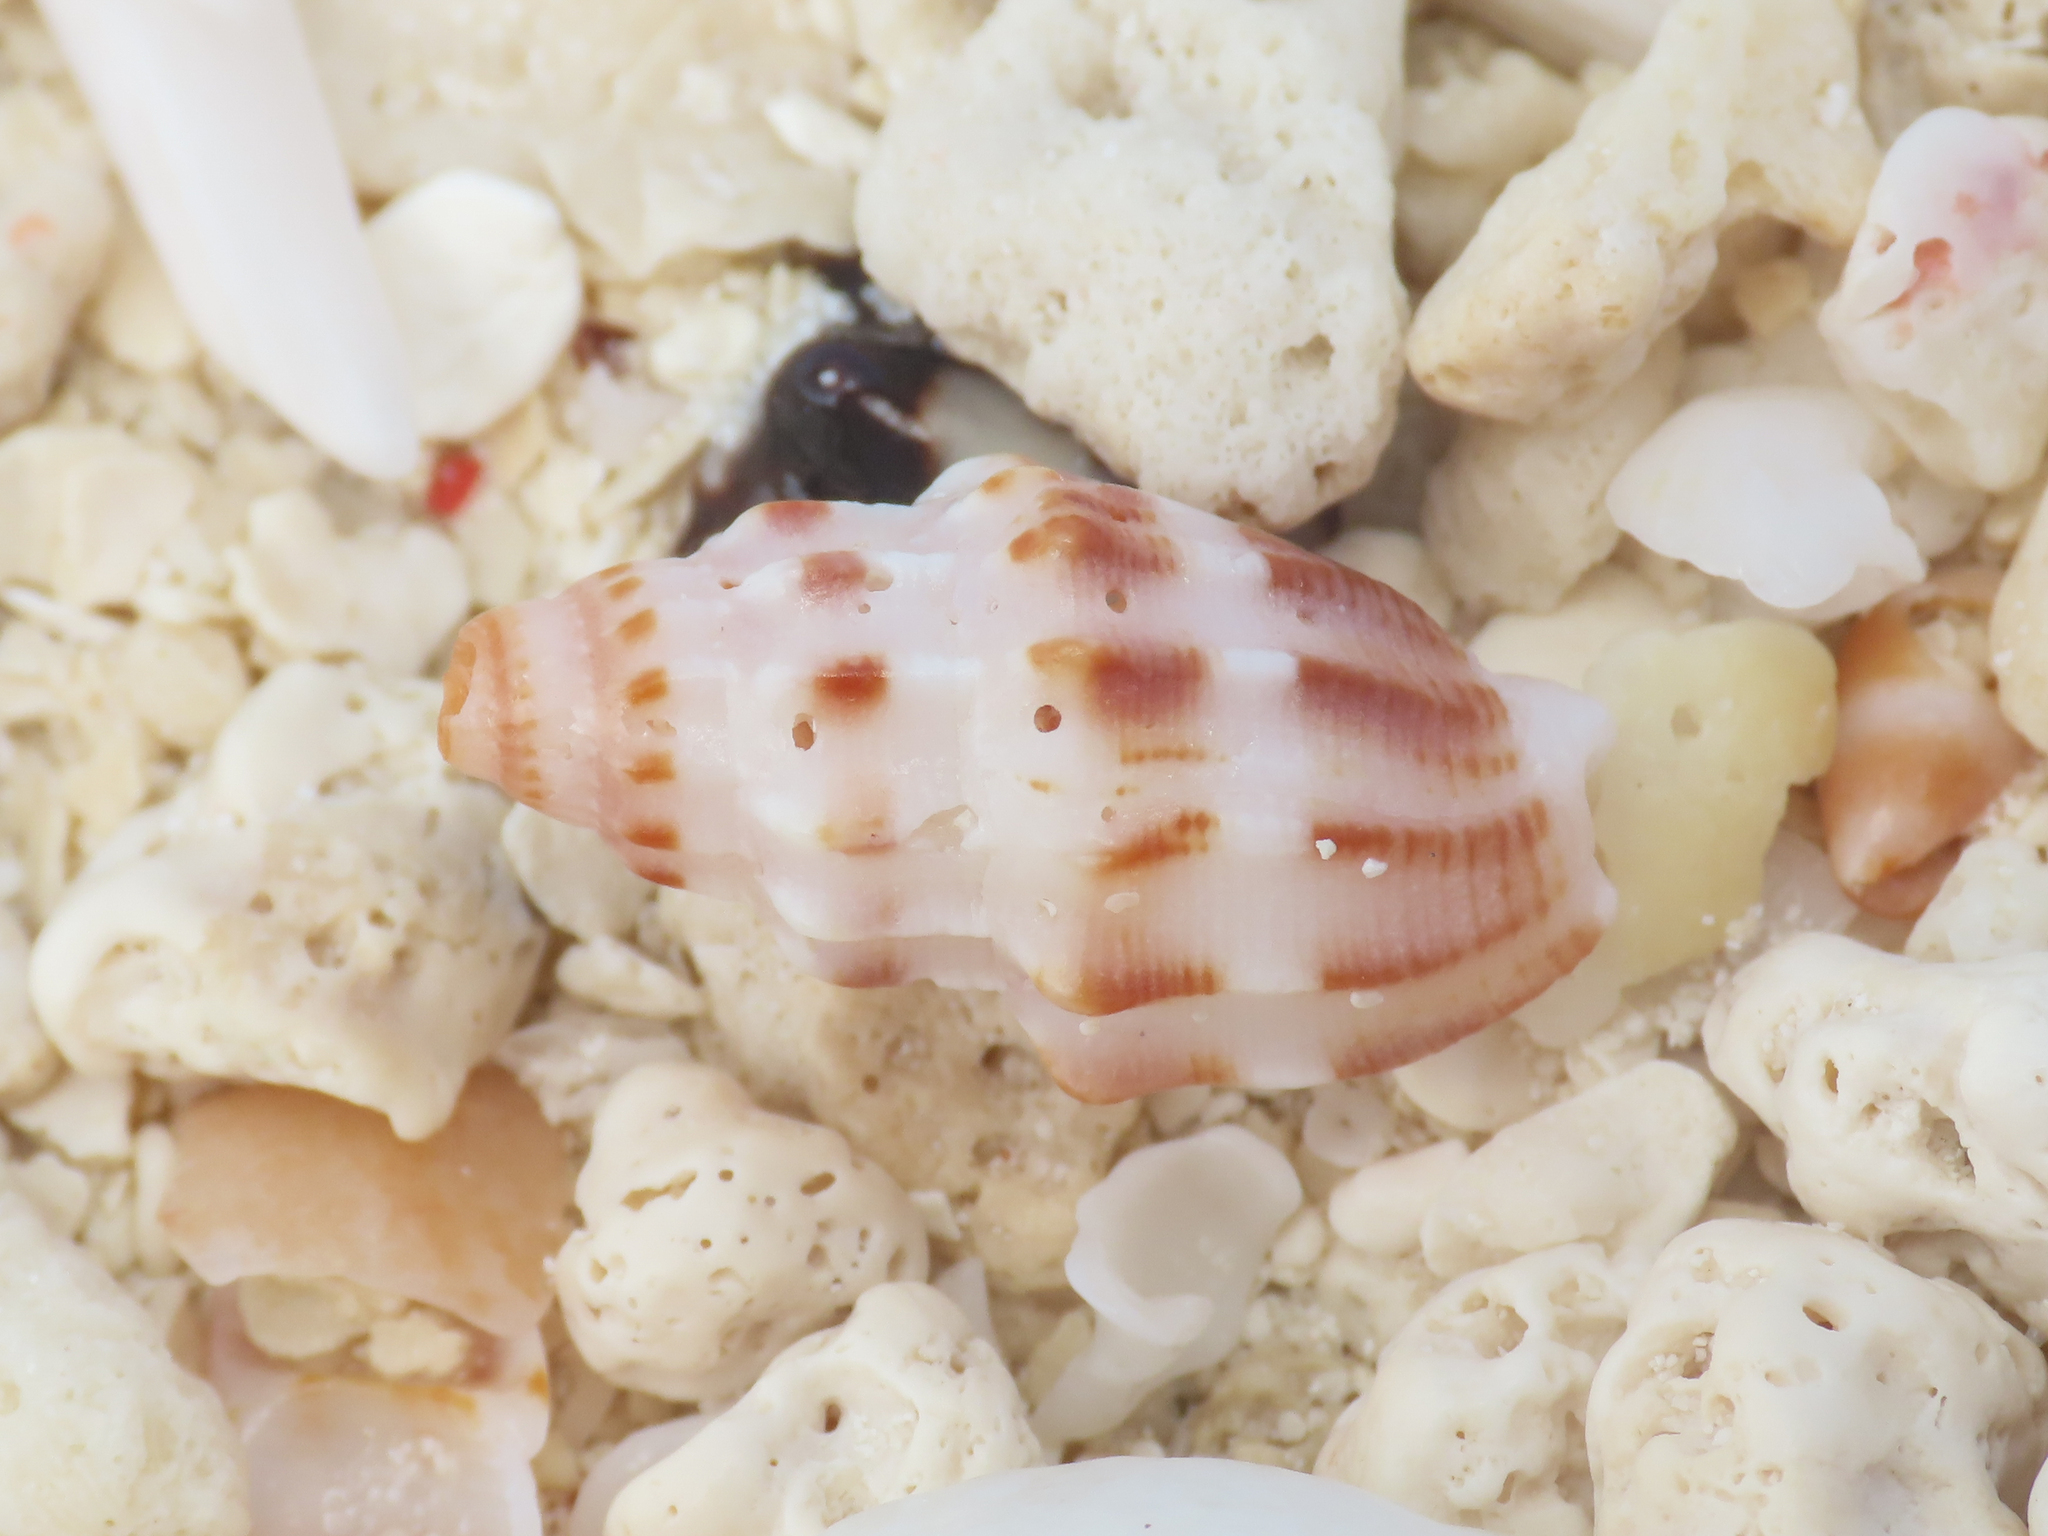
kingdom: Animalia
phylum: Mollusca
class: Gastropoda
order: Neogastropoda
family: Costellariidae
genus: Vexillum
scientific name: Vexillum exasperatum
